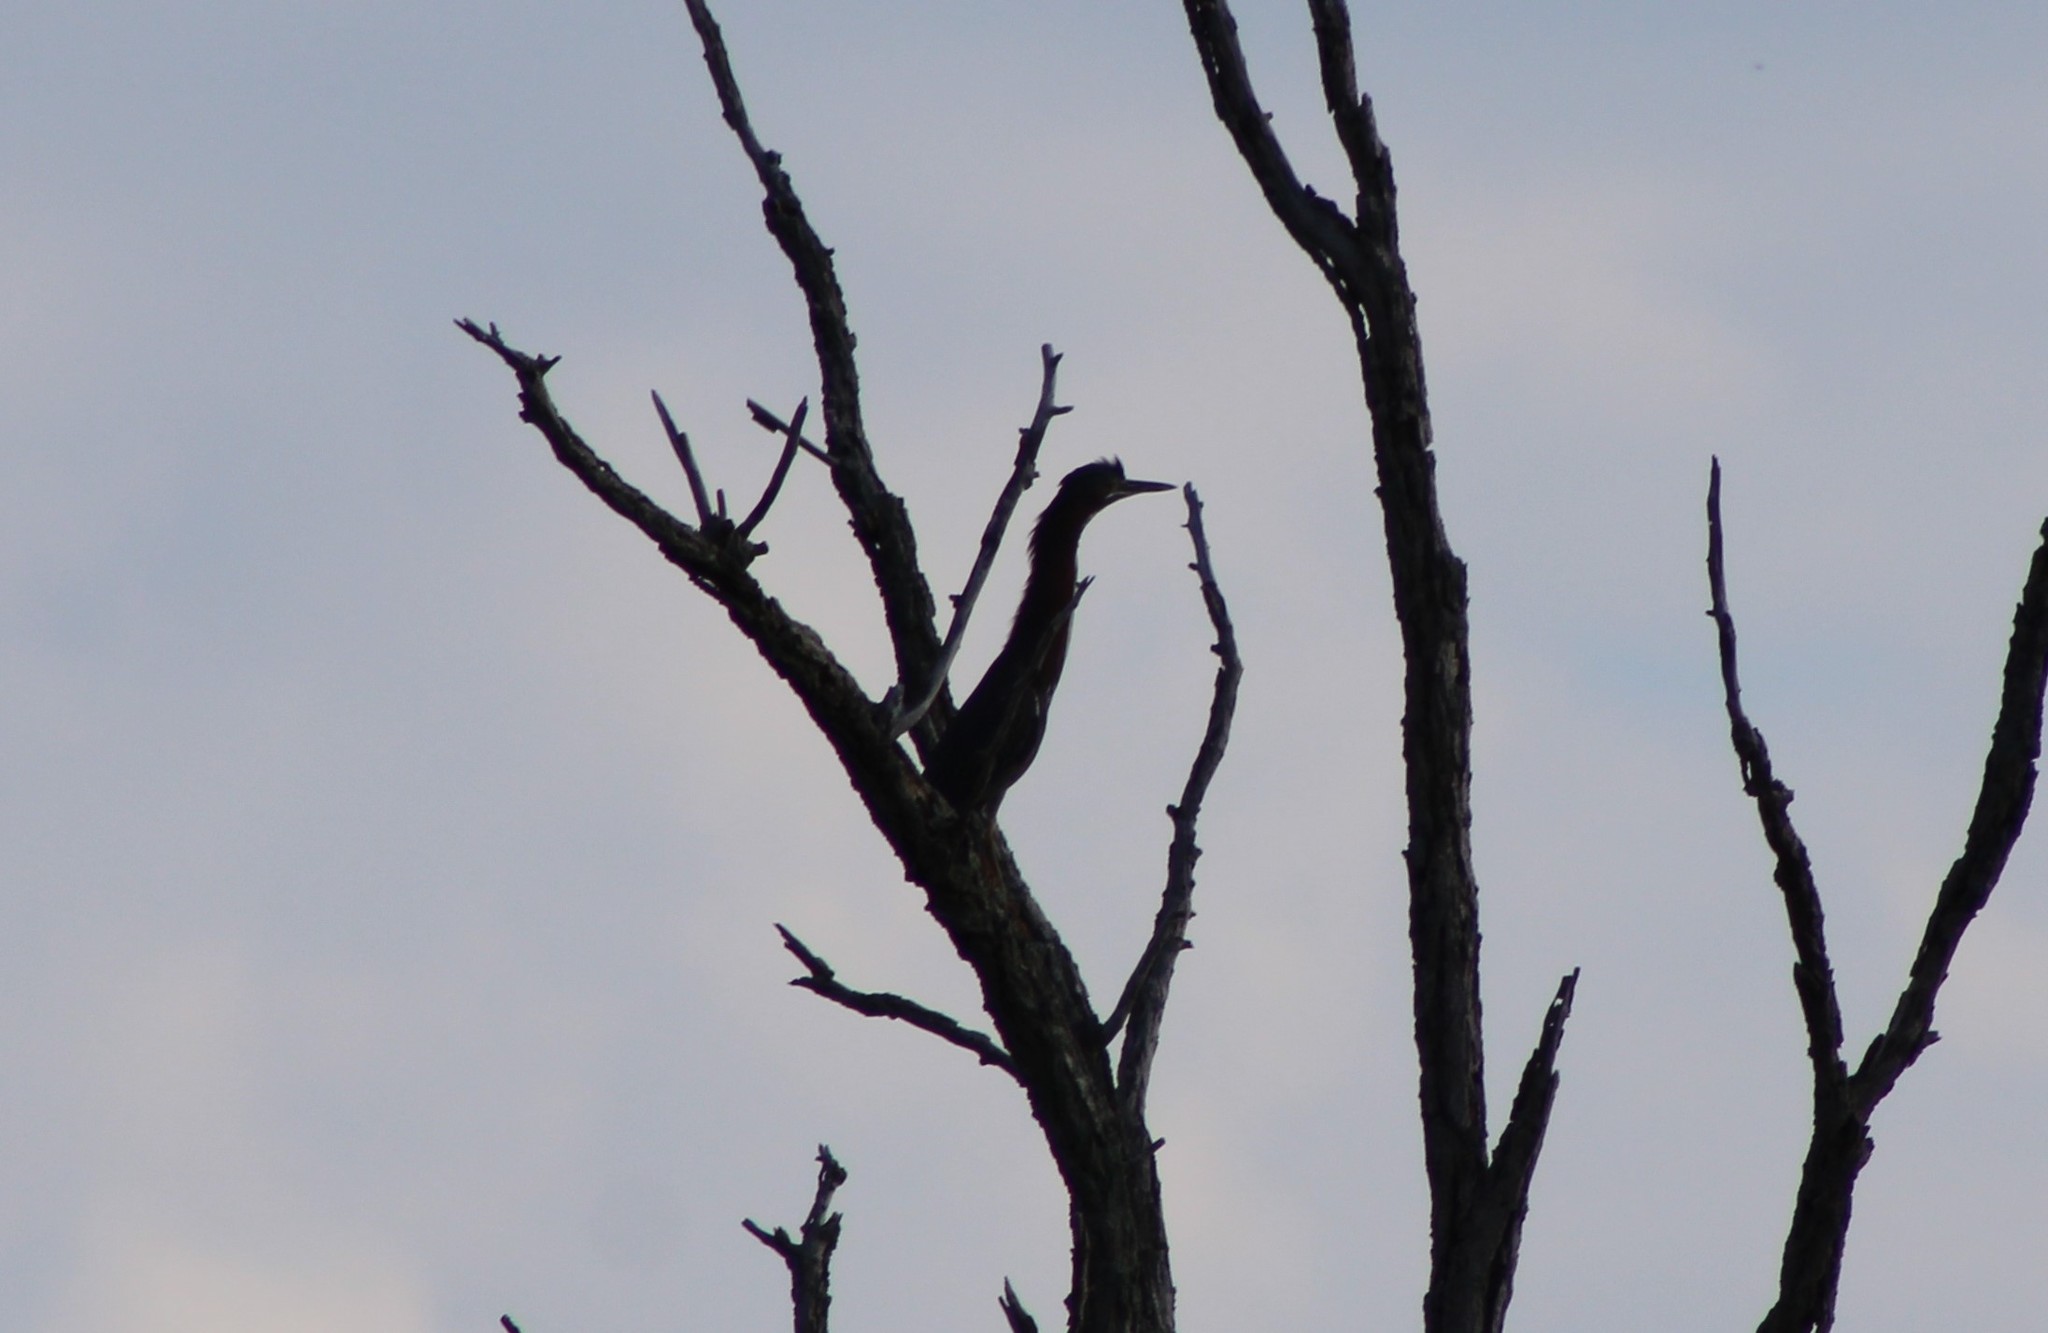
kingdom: Animalia
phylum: Chordata
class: Aves
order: Pelecaniformes
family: Ardeidae
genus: Butorides
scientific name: Butorides virescens
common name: Green heron
